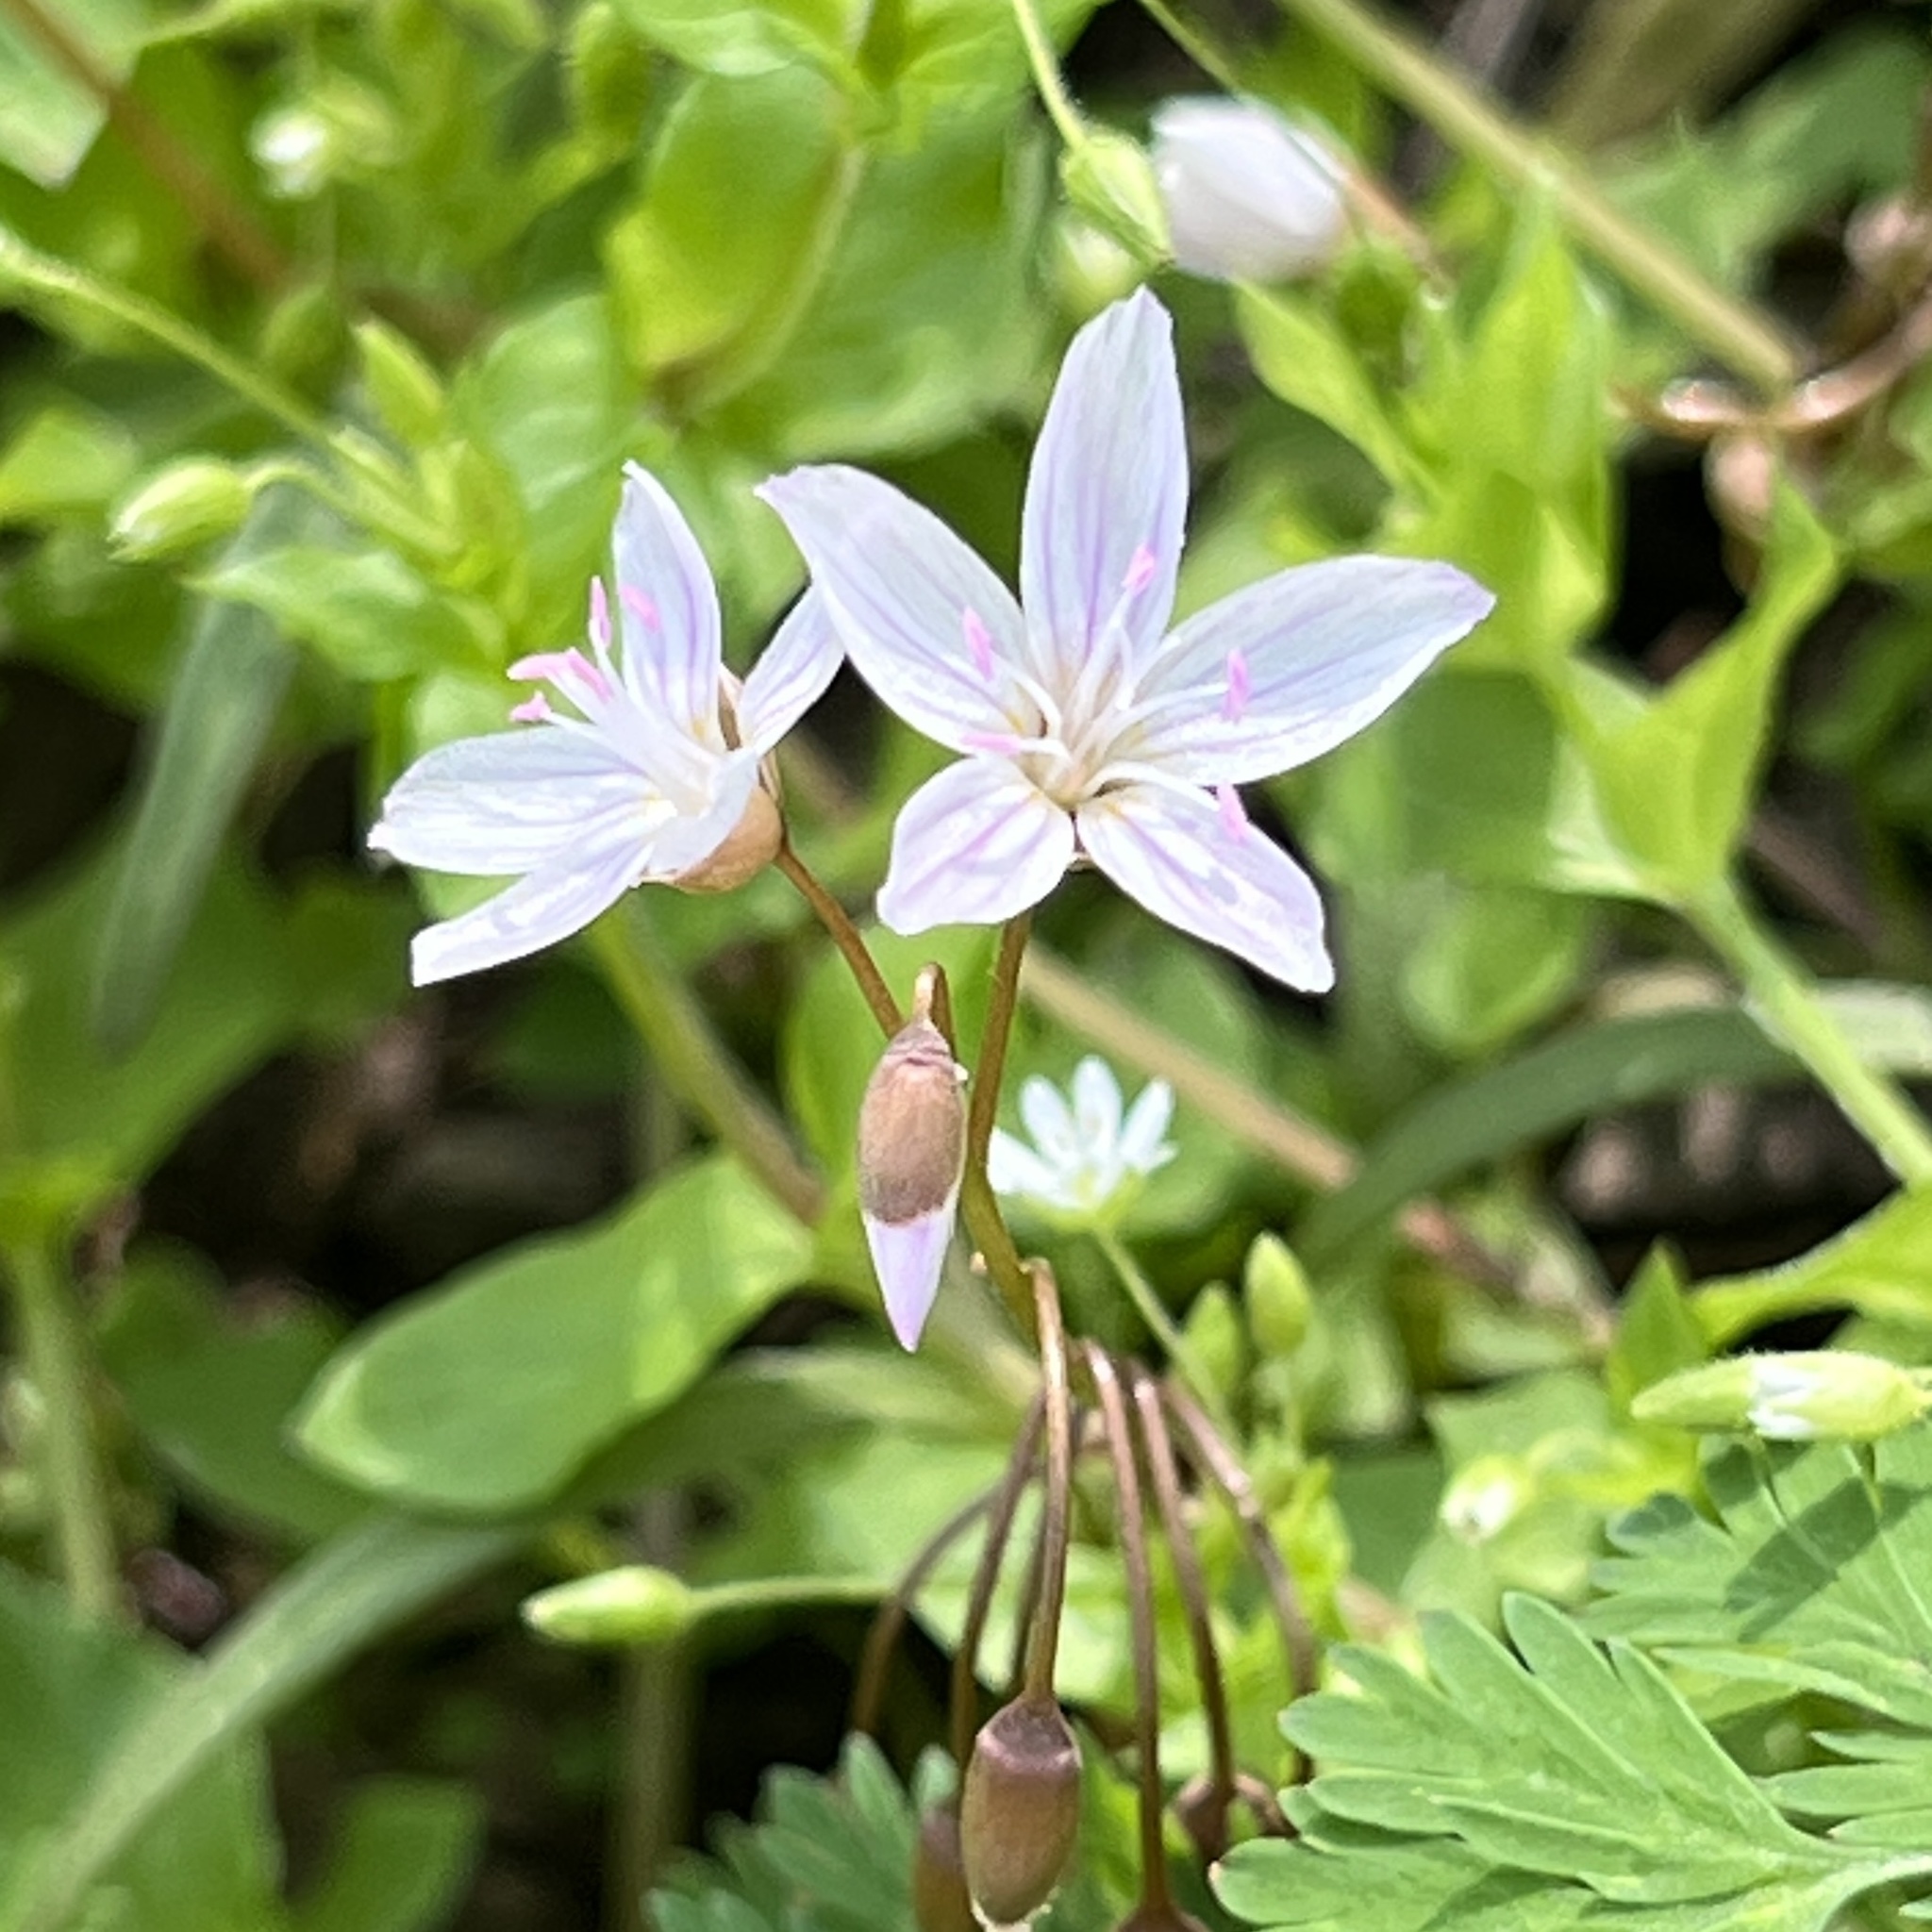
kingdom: Plantae
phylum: Tracheophyta
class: Magnoliopsida
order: Caryophyllales
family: Montiaceae
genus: Claytonia
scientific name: Claytonia virginica
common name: Virginia springbeauty
